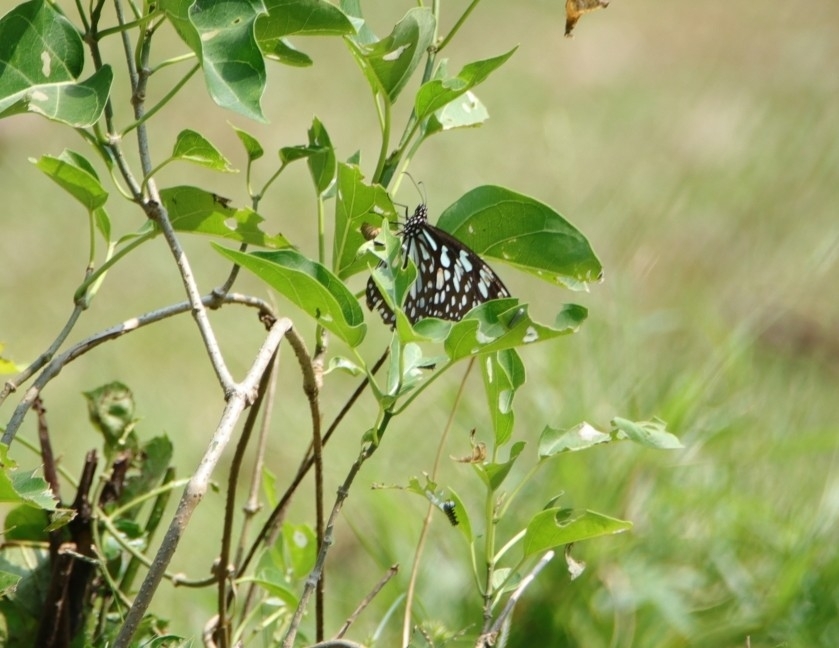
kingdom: Animalia
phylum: Arthropoda
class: Insecta
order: Lepidoptera
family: Nymphalidae
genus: Tirumala
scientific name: Tirumala limniace
